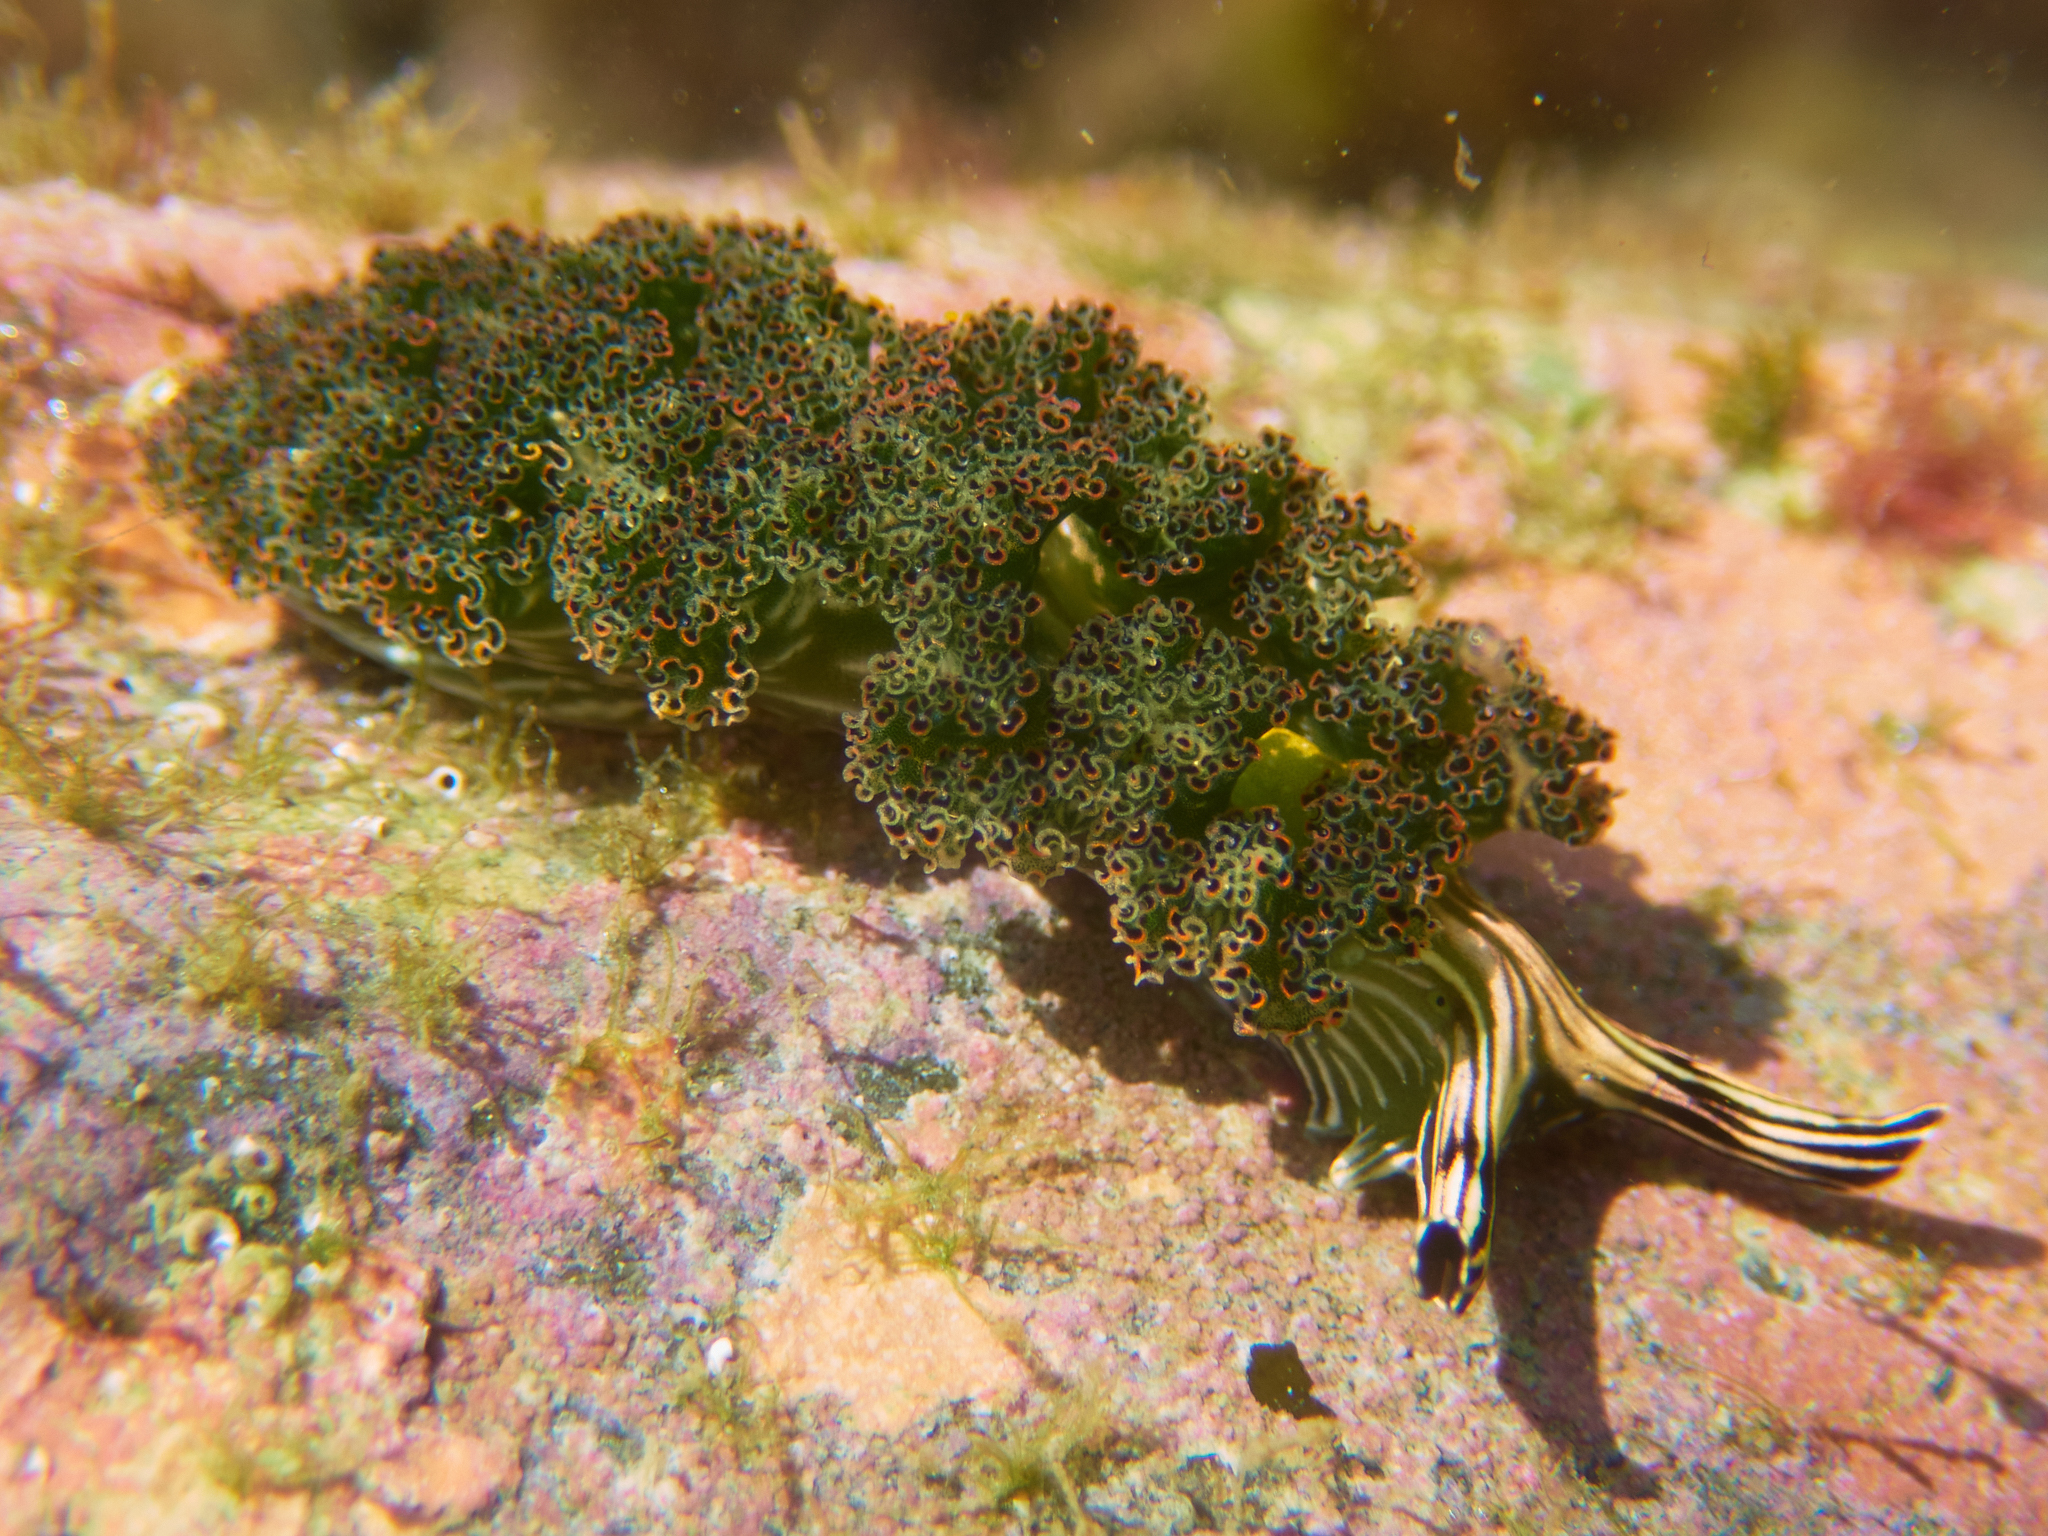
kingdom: Animalia
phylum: Mollusca
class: Gastropoda
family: Plakobranchidae
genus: Elysia
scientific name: Elysia diomedea
